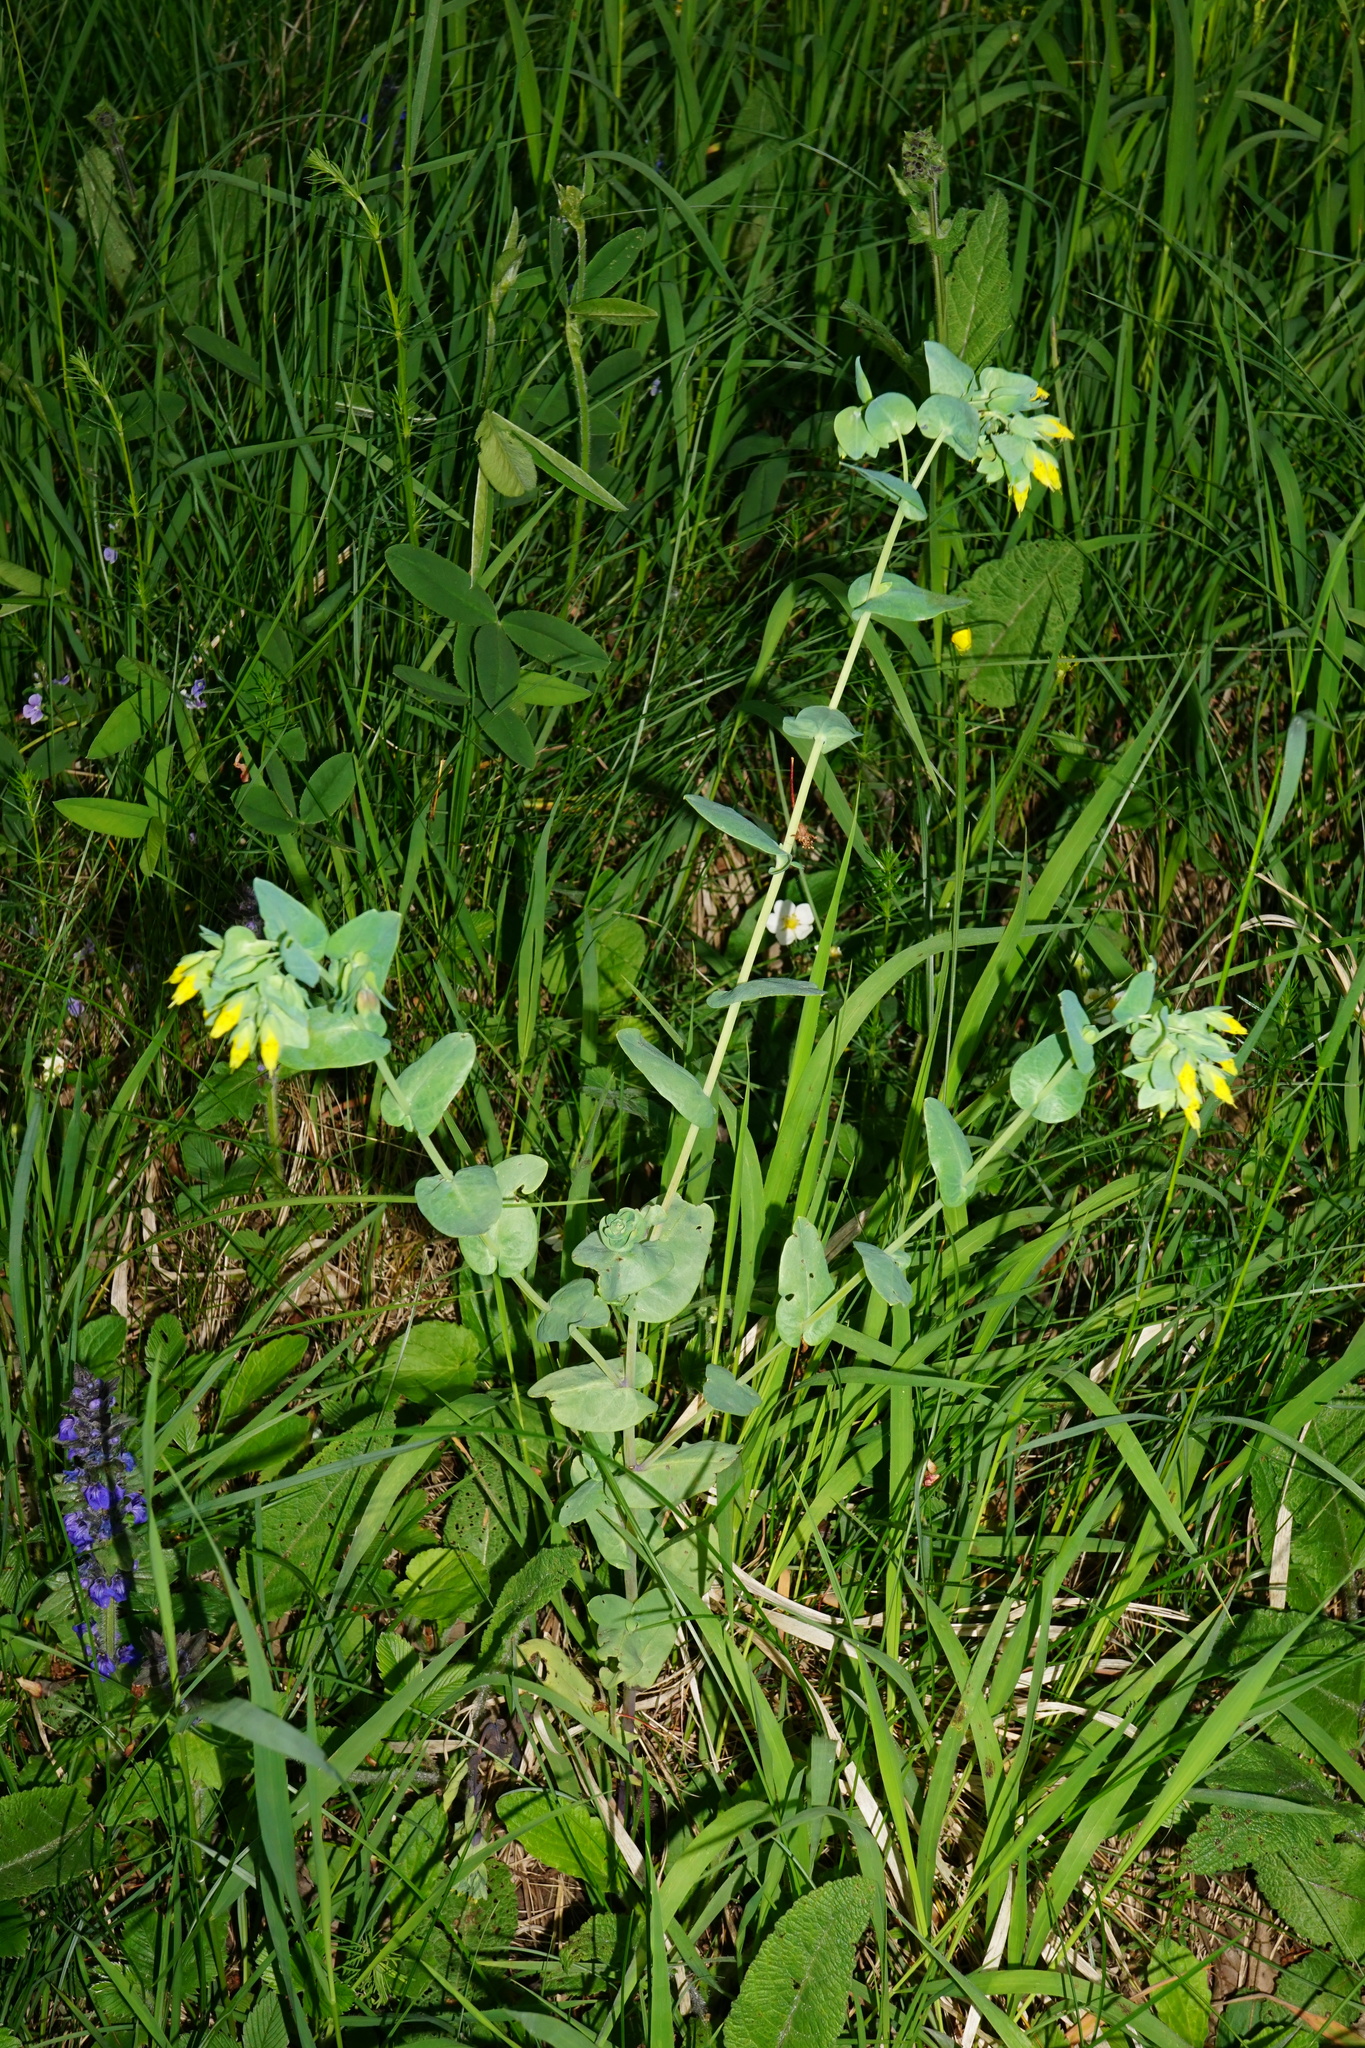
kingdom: Plantae
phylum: Tracheophyta
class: Magnoliopsida
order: Boraginales
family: Boraginaceae
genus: Cerinthe
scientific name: Cerinthe minor
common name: Lesser honeywort
